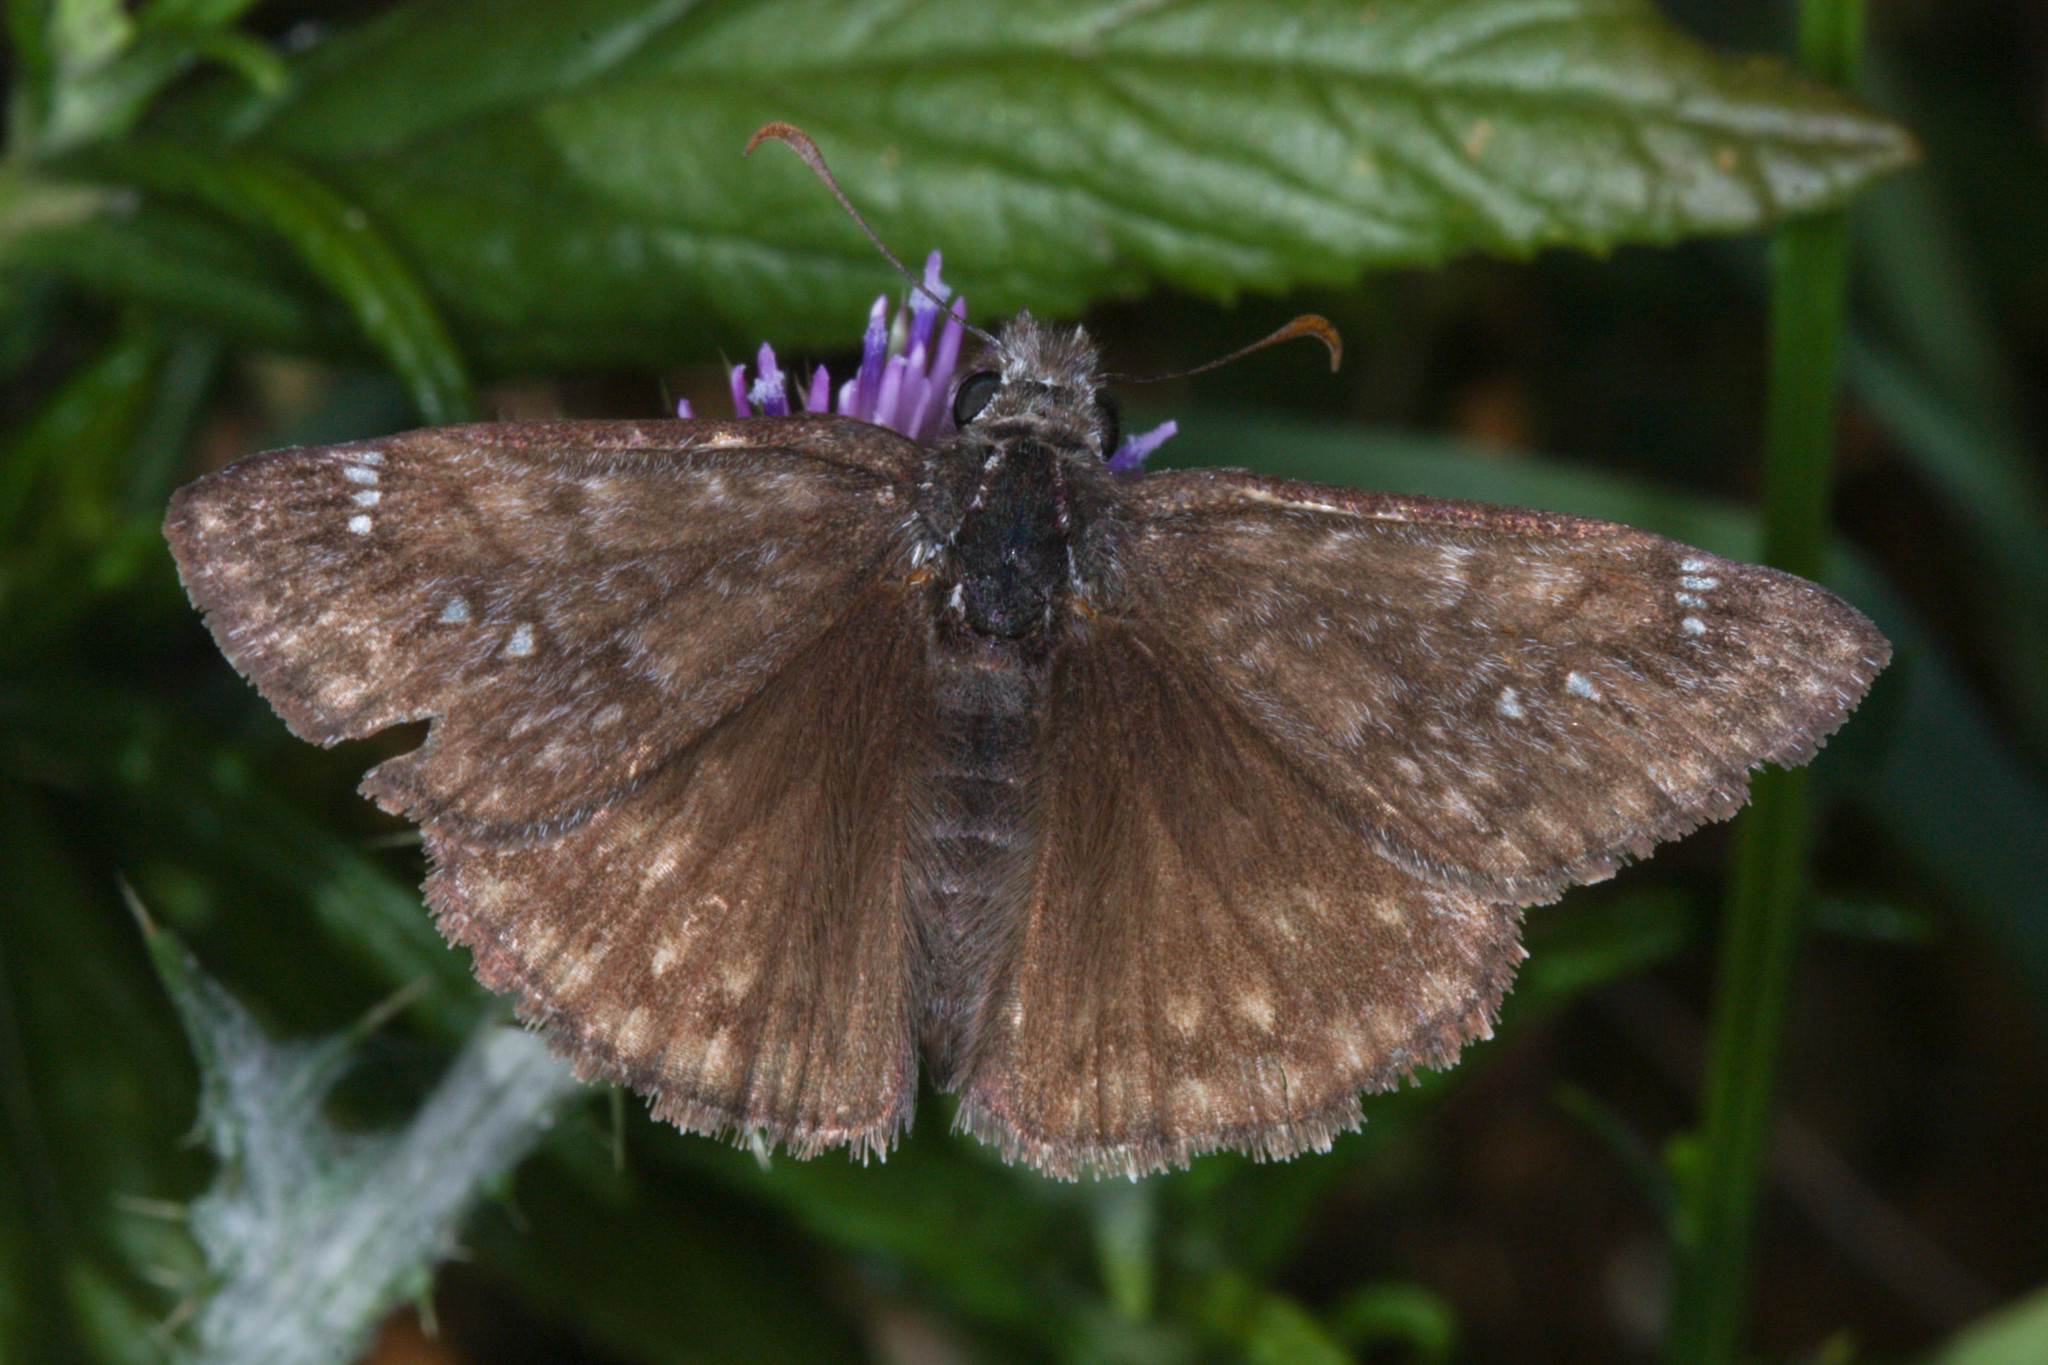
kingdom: Animalia
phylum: Arthropoda
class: Insecta
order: Lepidoptera
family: Hesperiidae
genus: Erynnis
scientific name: Erynnis propertius
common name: Propertius duskywing
